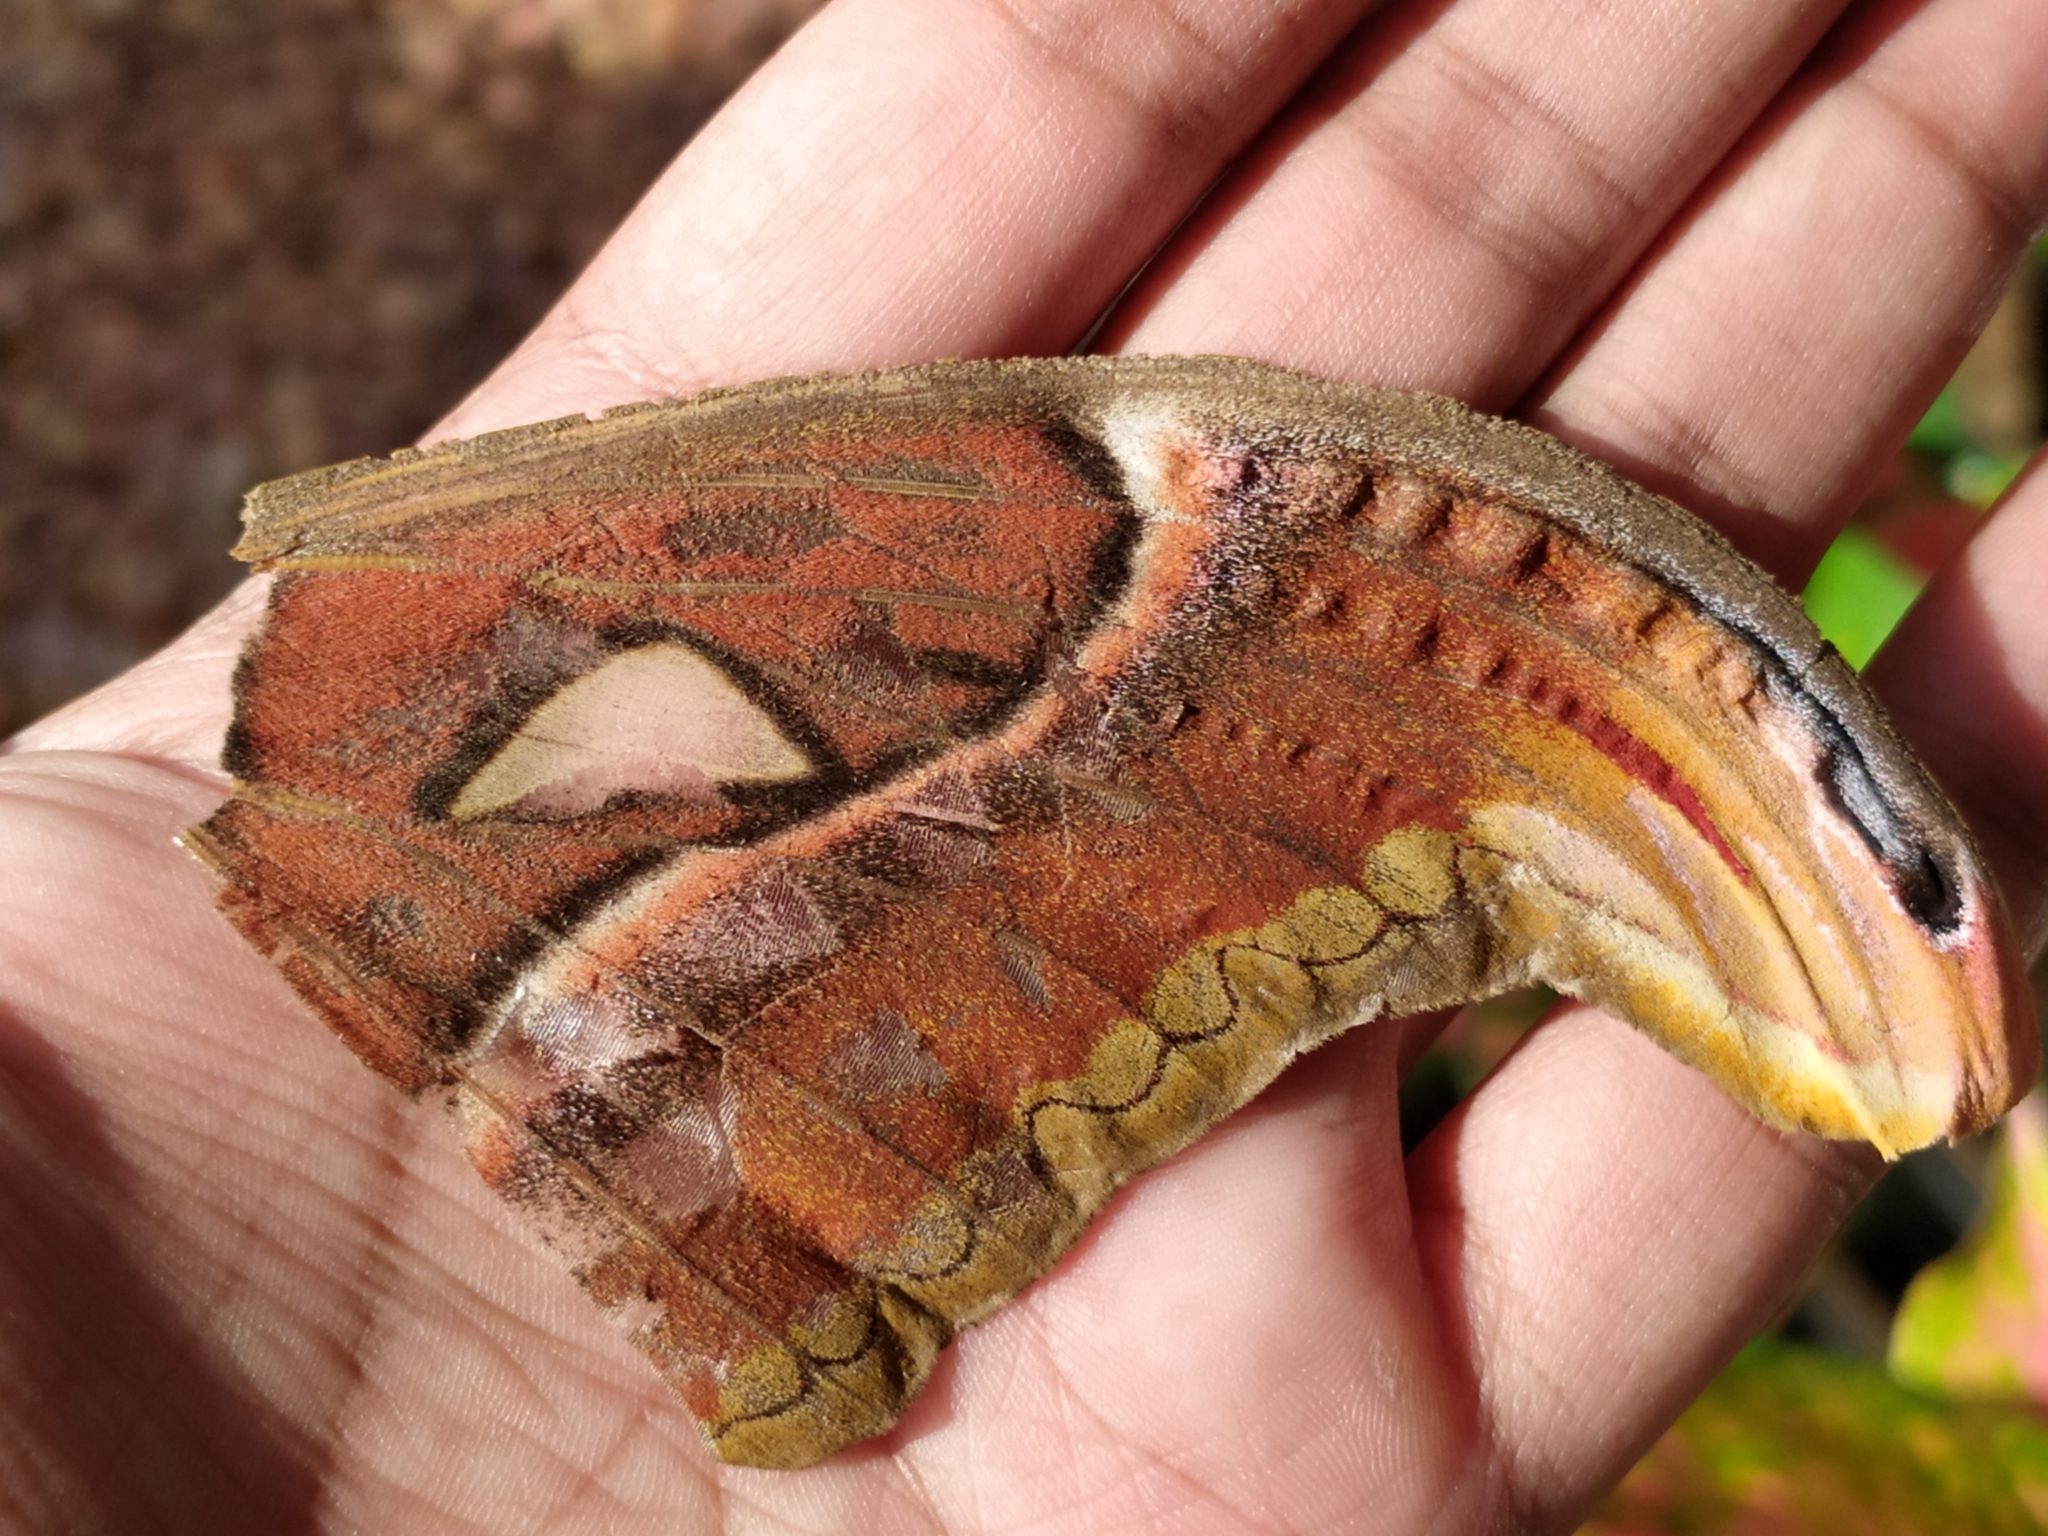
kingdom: Animalia
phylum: Arthropoda
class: Insecta
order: Lepidoptera
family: Saturniidae
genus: Attacus
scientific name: Attacus taprobanis
